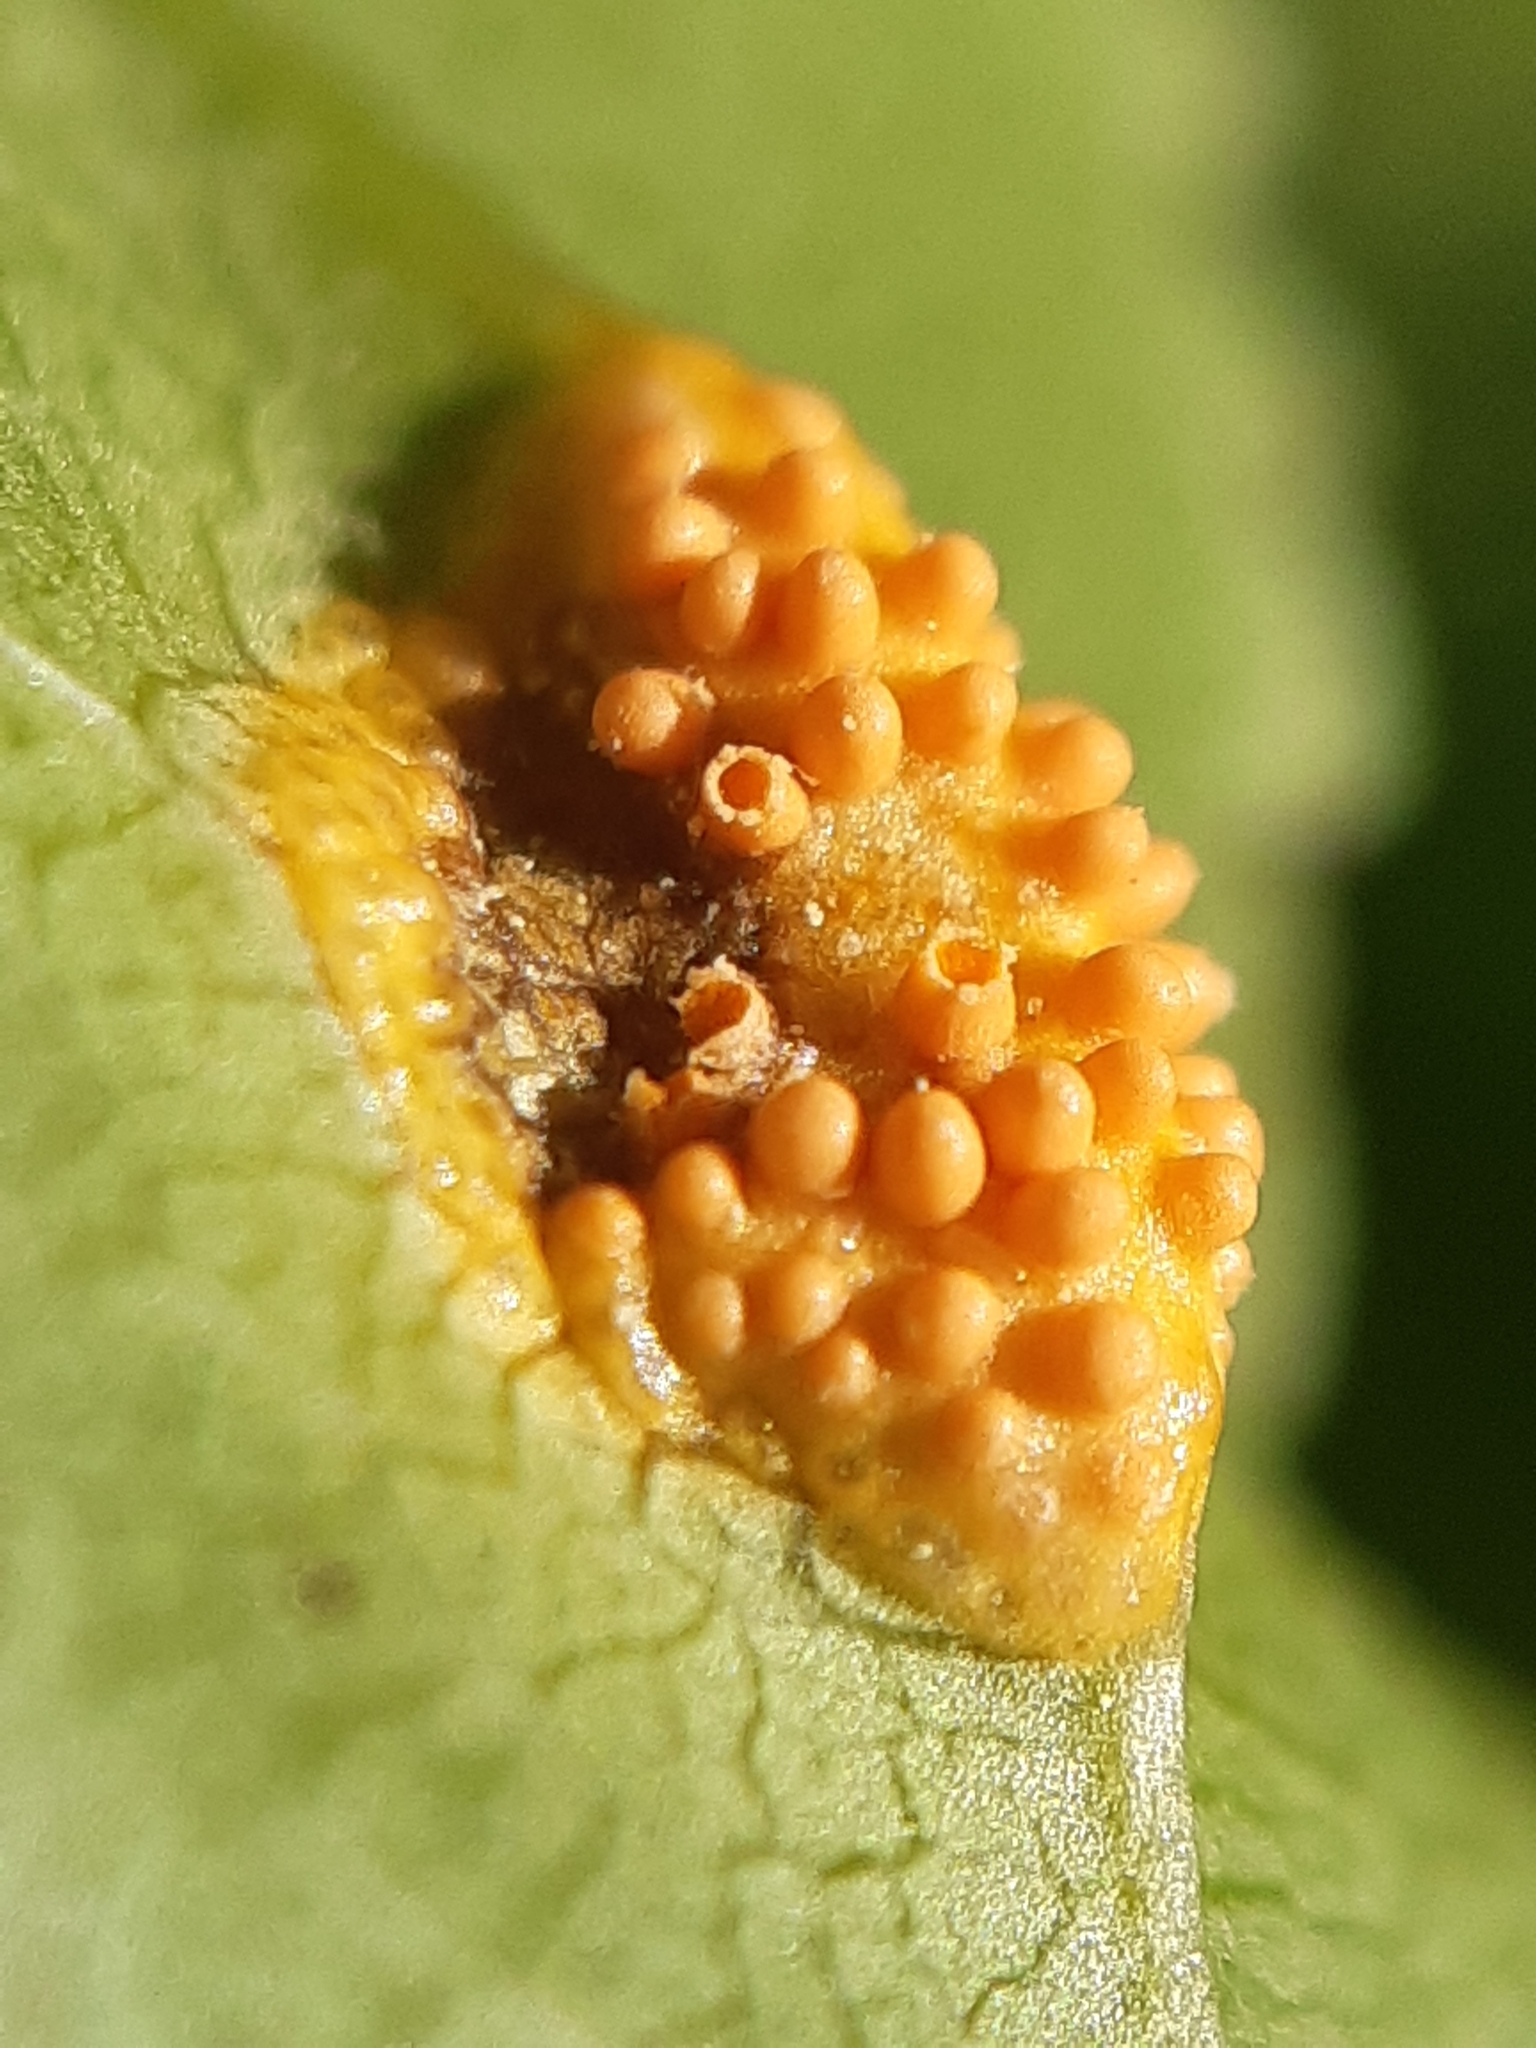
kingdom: Fungi
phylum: Basidiomycota
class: Pucciniomycetes
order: Pucciniales
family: Pucciniaceae
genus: Puccinia
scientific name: Puccinia coronata
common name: Crown rust
